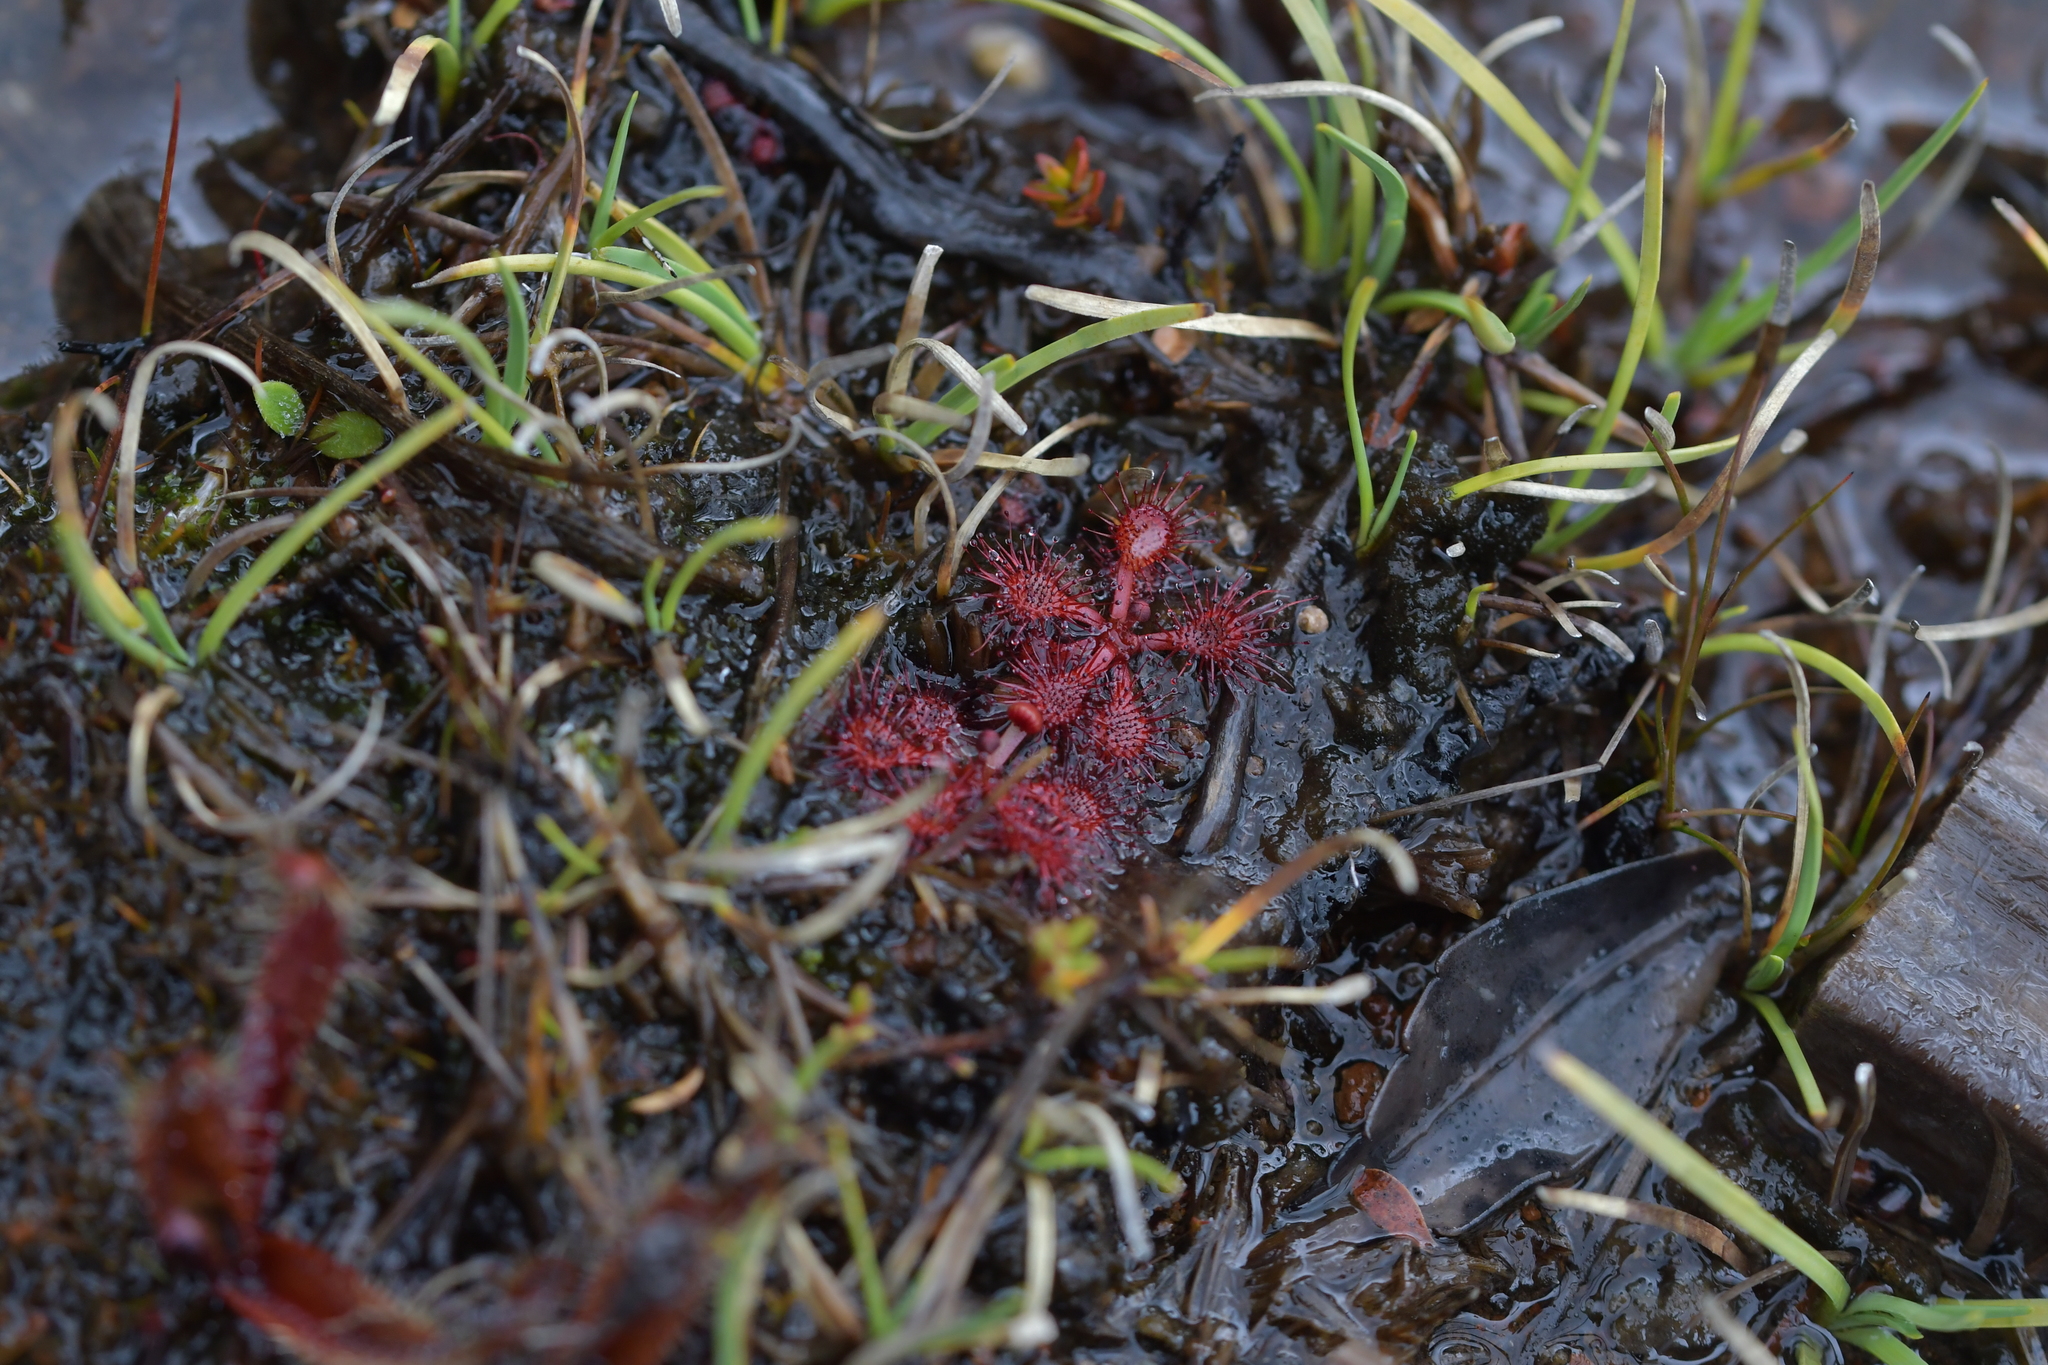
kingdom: Plantae
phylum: Tracheophyta
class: Magnoliopsida
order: Caryophyllales
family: Droseraceae
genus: Drosera
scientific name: Drosera spatulata
